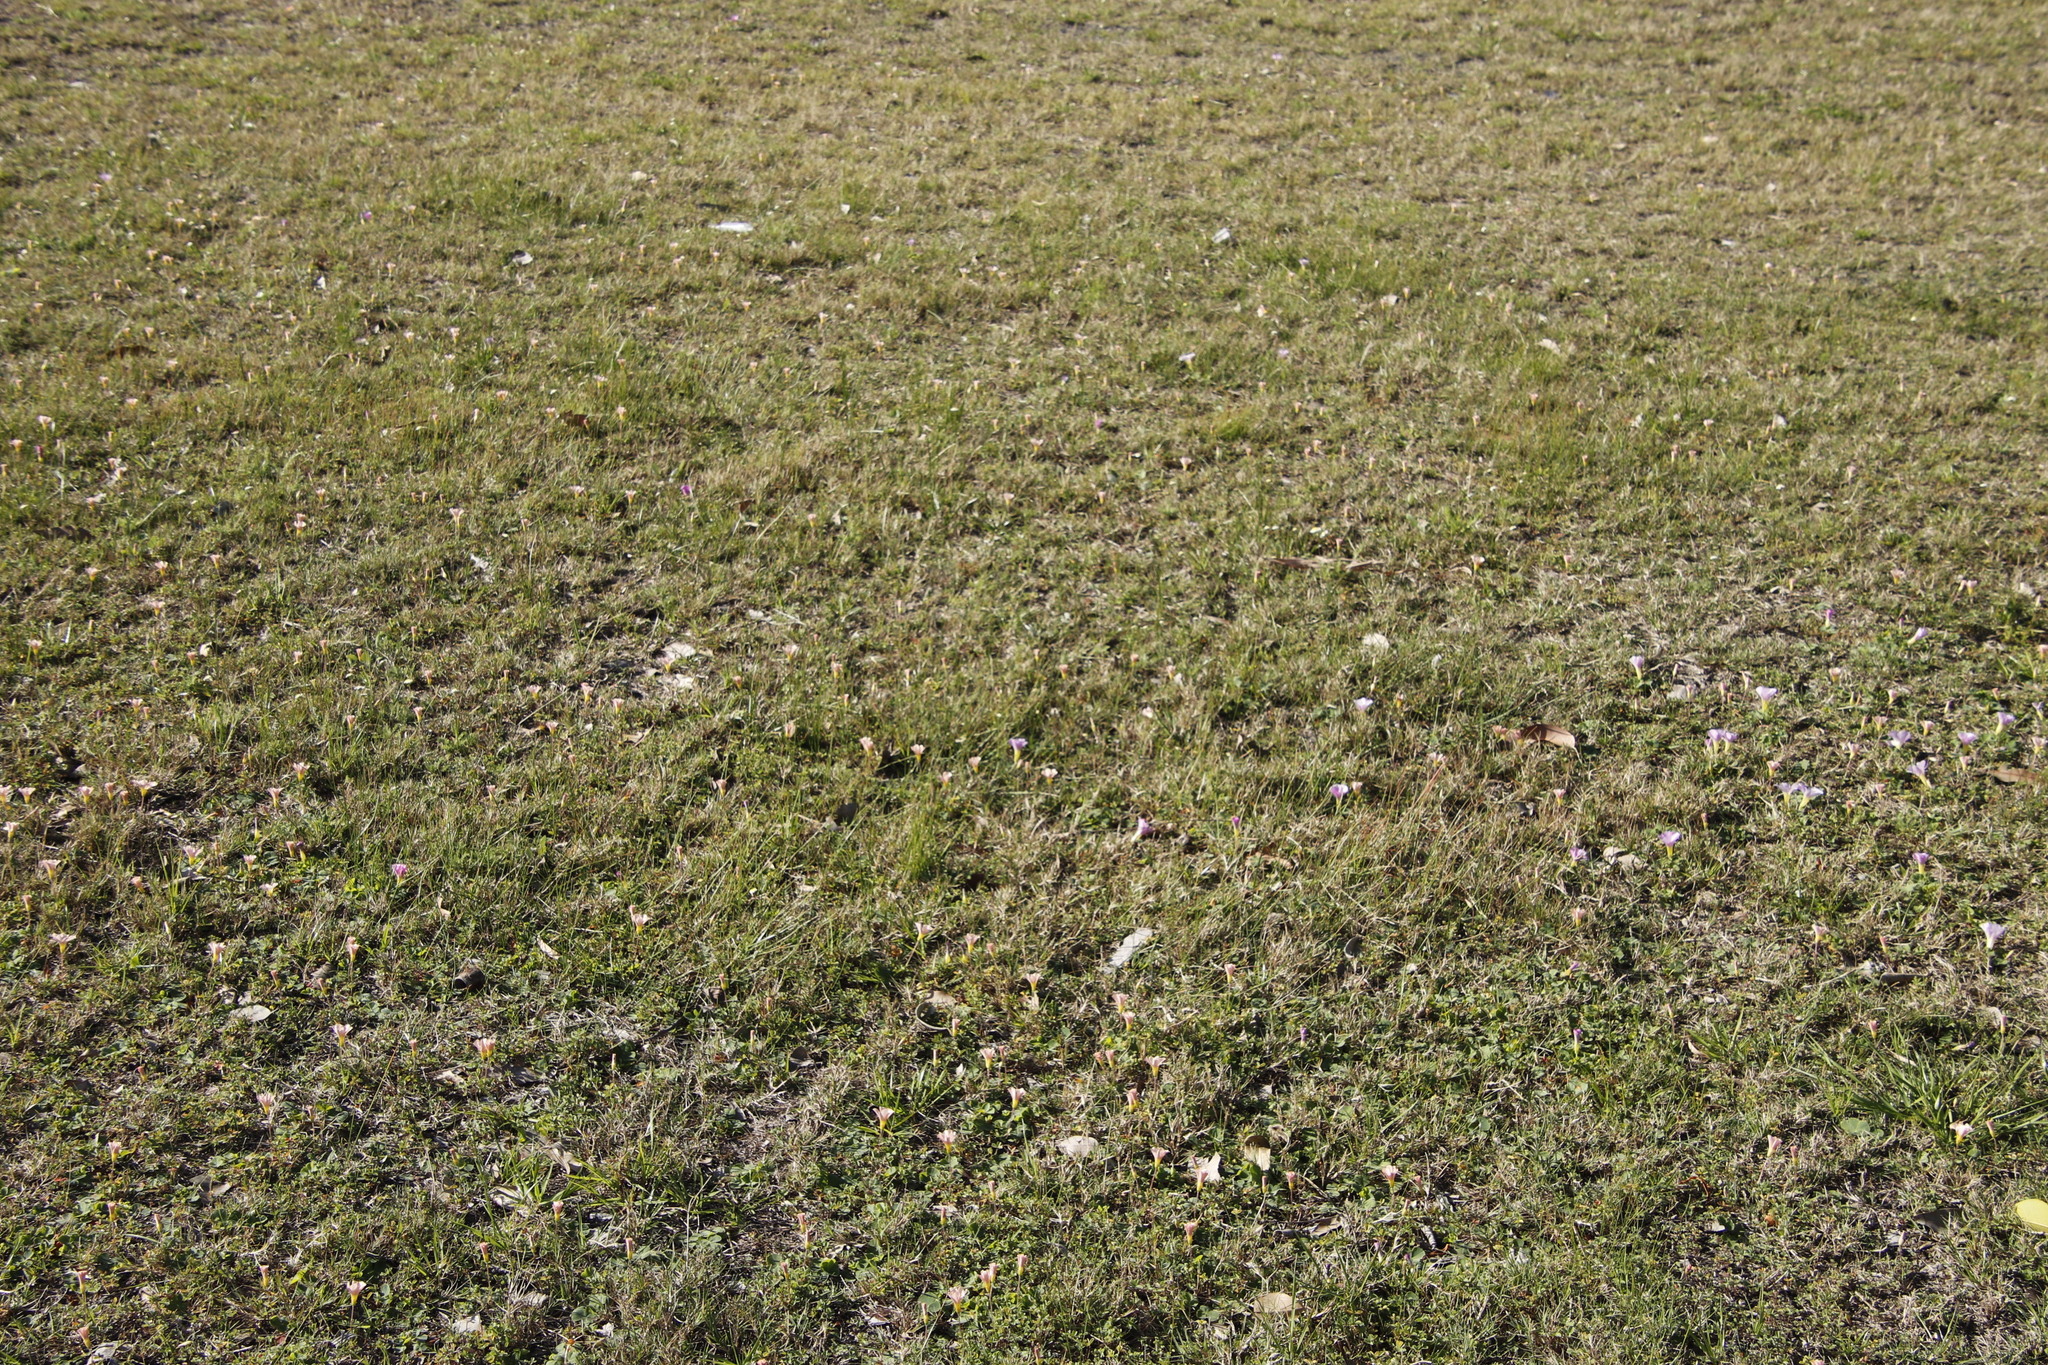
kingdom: Plantae
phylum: Tracheophyta
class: Magnoliopsida
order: Oxalidales
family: Oxalidaceae
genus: Oxalis
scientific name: Oxalis purpurea
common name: Purple woodsorrel
